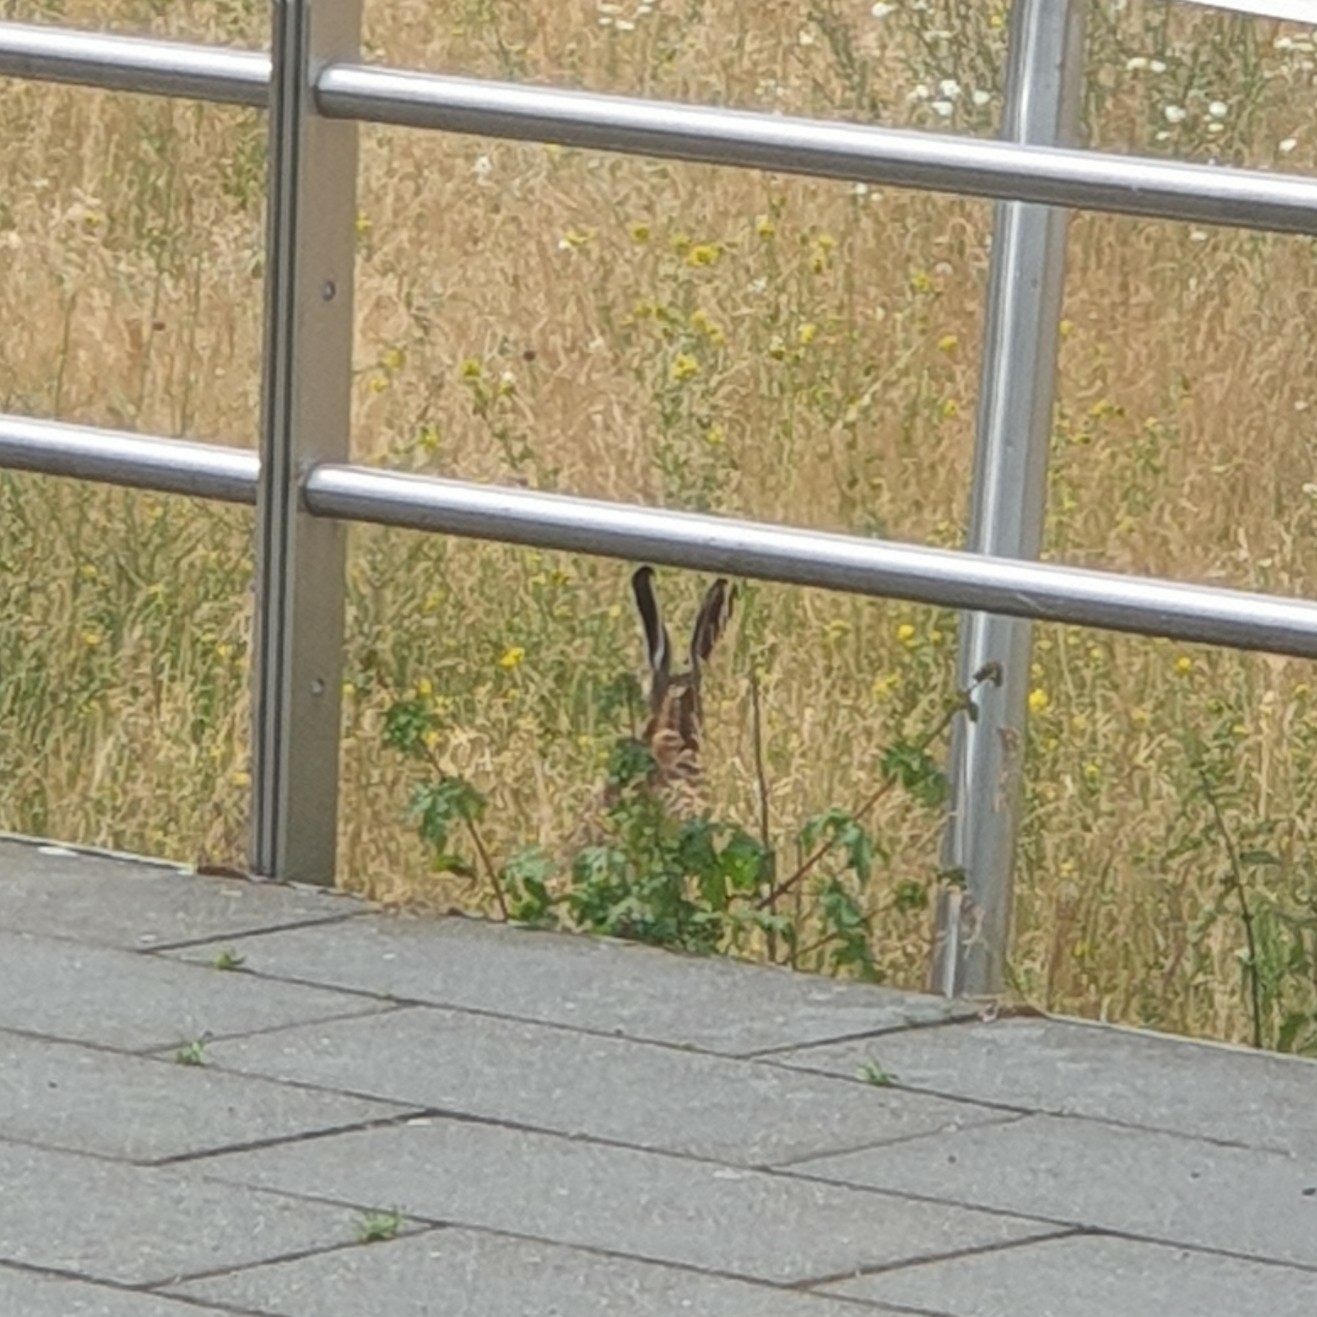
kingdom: Animalia
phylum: Chordata
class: Mammalia
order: Lagomorpha
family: Leporidae
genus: Lepus
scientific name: Lepus europaeus
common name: European hare
